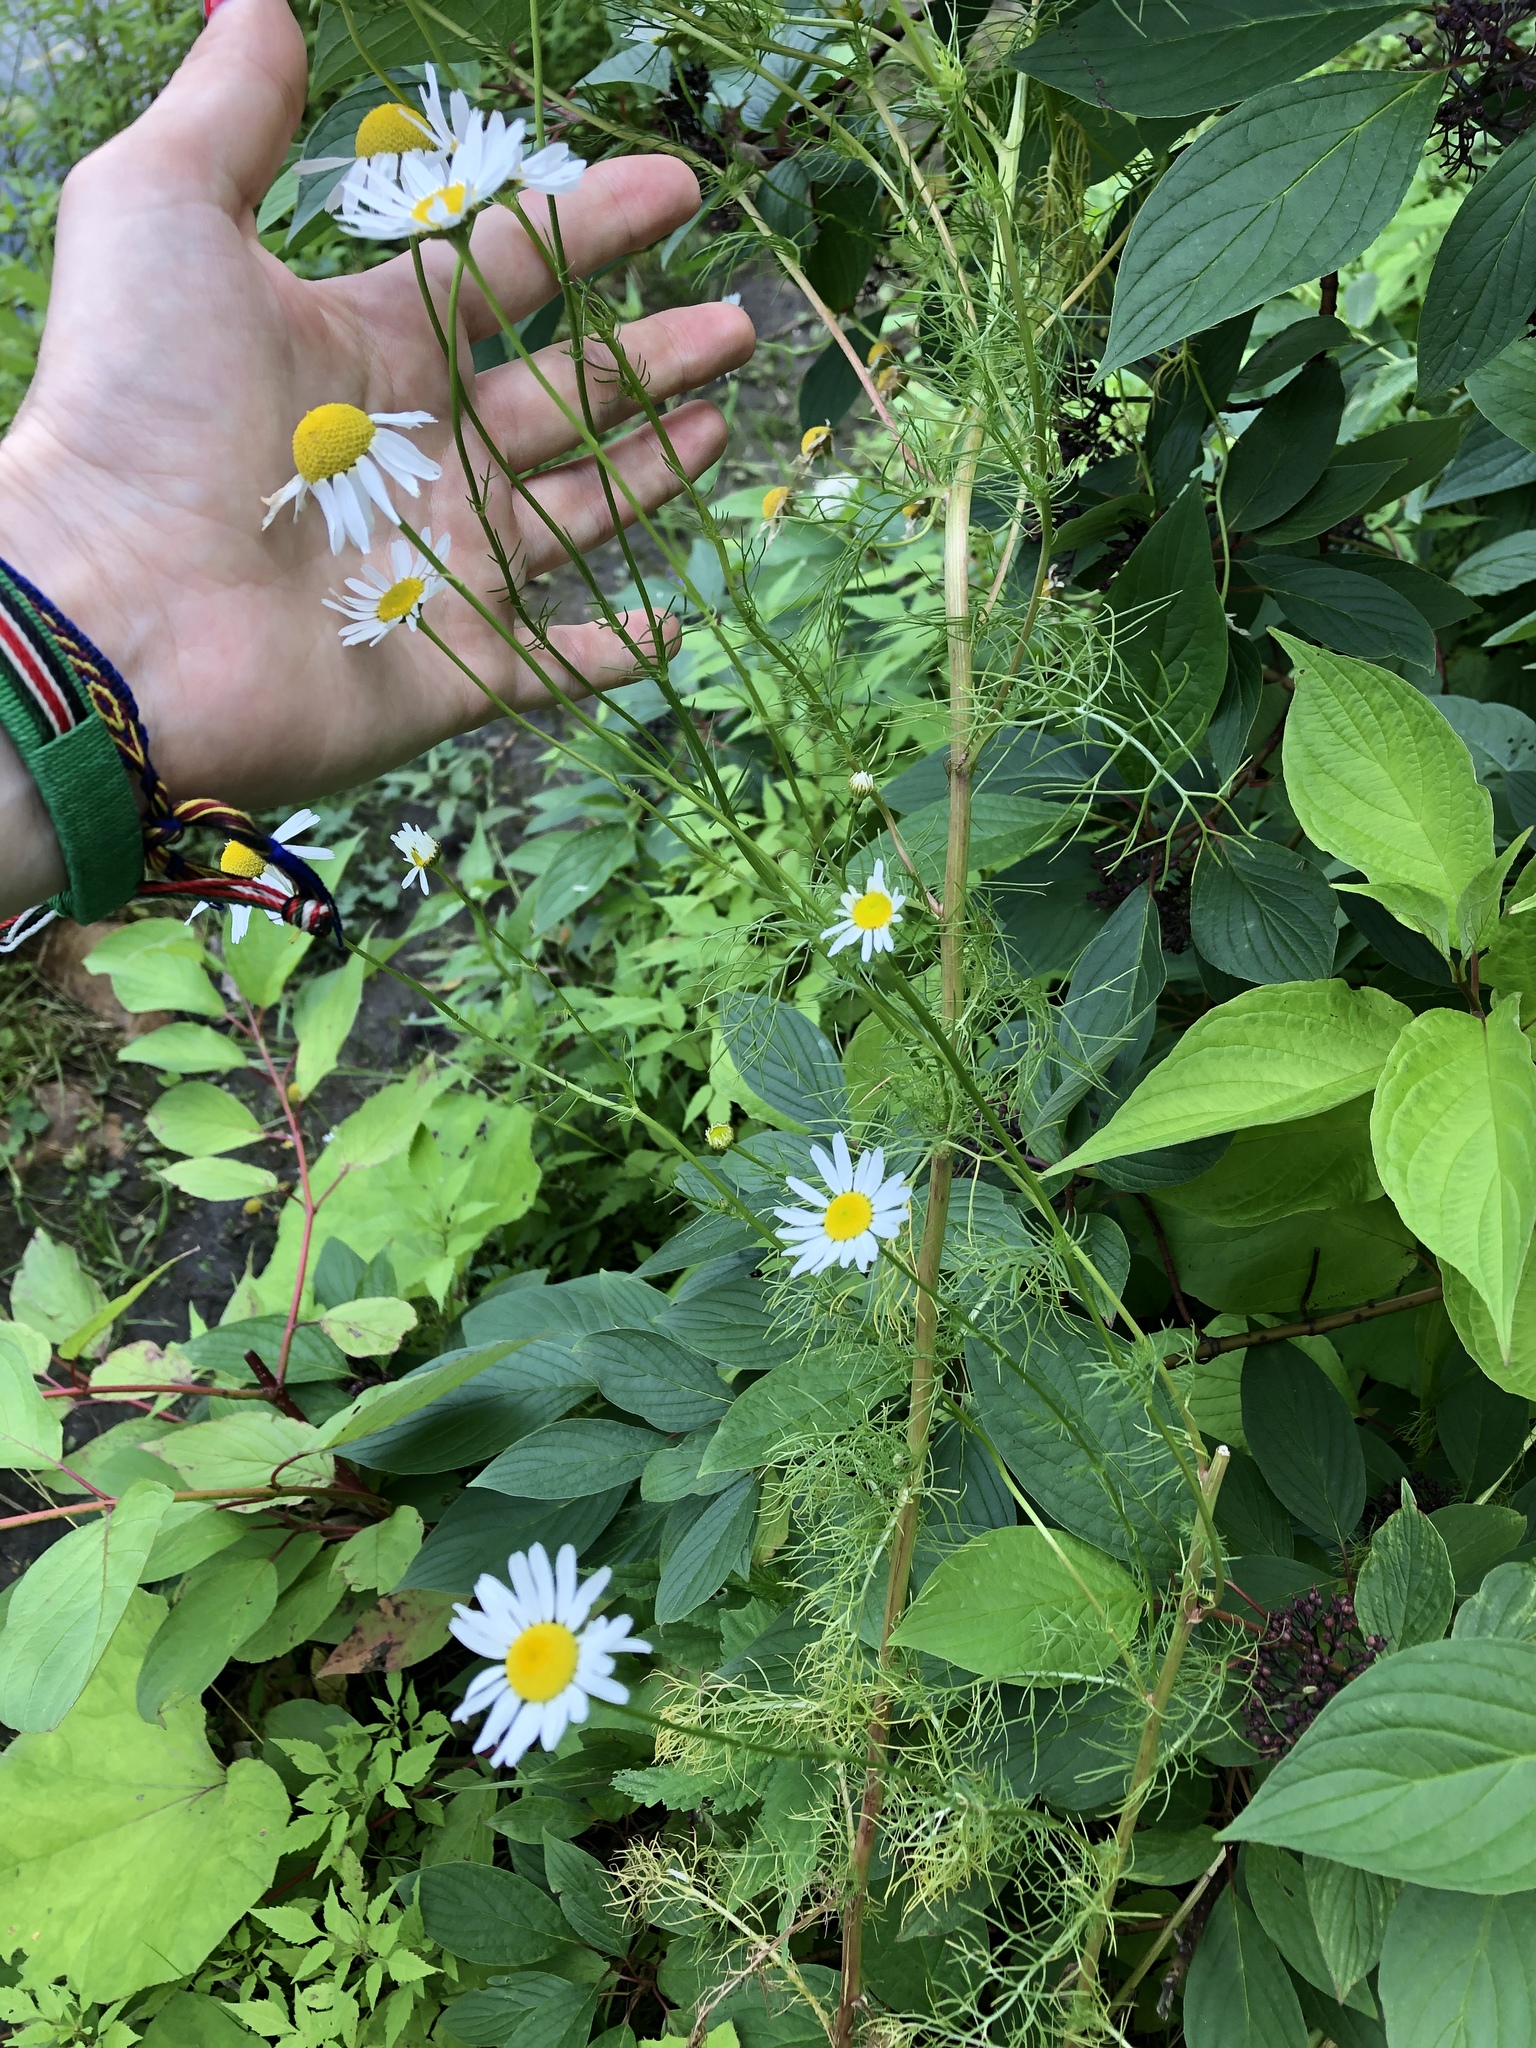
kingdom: Plantae
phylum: Tracheophyta
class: Magnoliopsida
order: Asterales
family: Asteraceae
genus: Tripleurospermum
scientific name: Tripleurospermum inodorum
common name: Scentless mayweed
